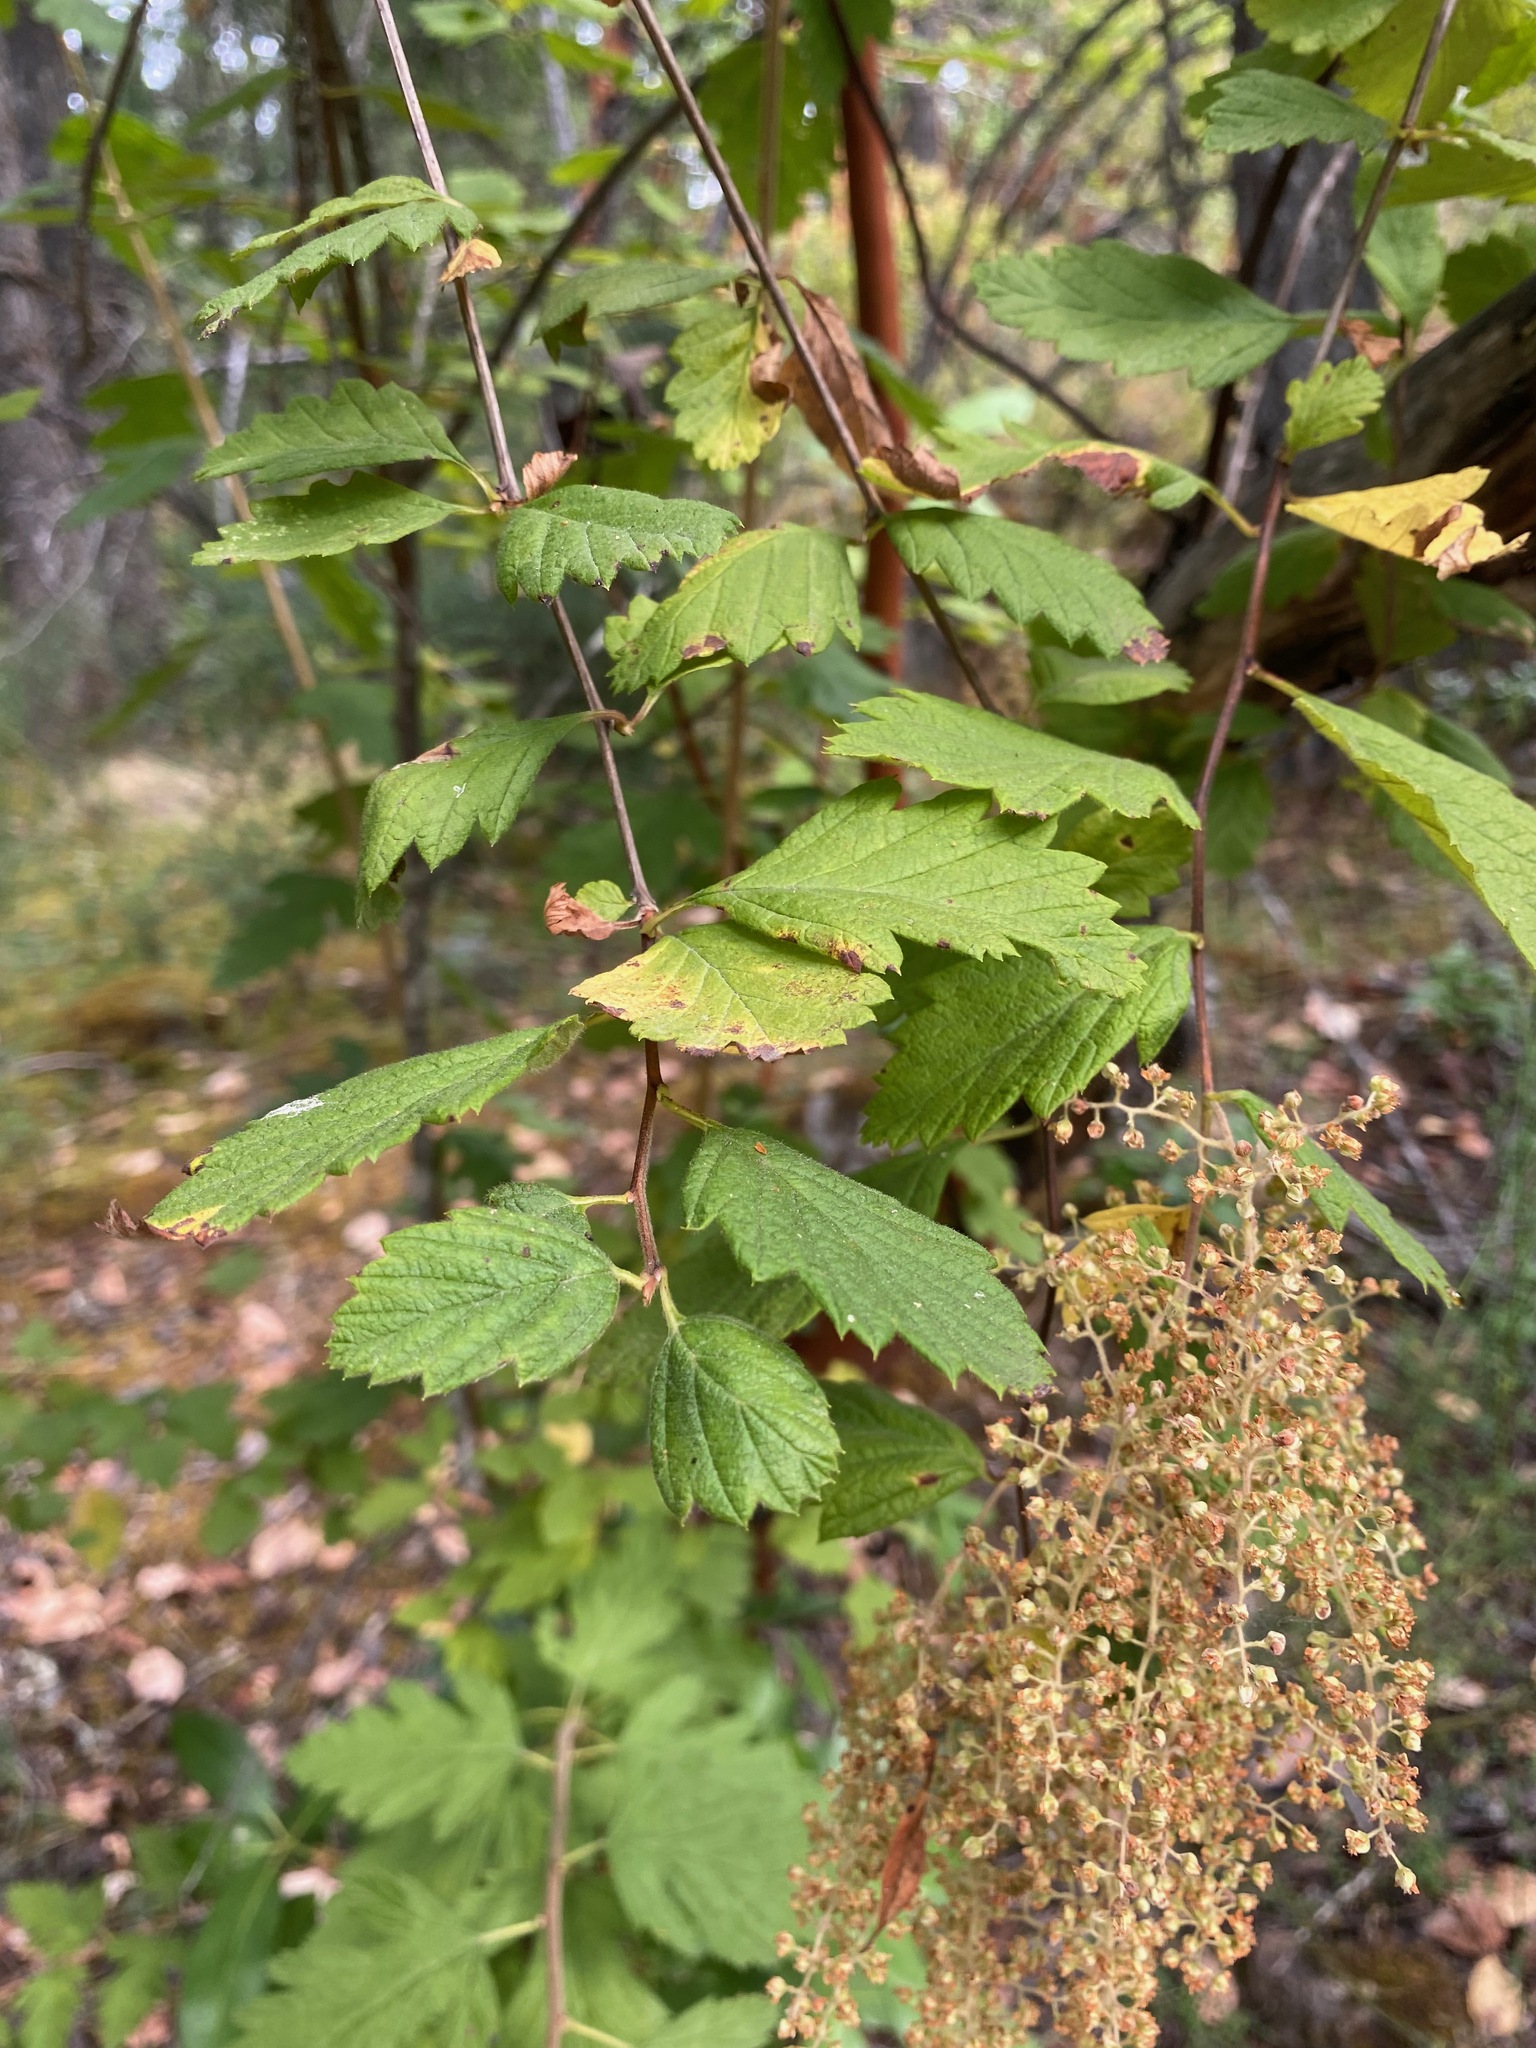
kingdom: Plantae
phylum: Tracheophyta
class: Magnoliopsida
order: Rosales
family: Rosaceae
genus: Holodiscus
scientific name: Holodiscus discolor
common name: Oceanspray
